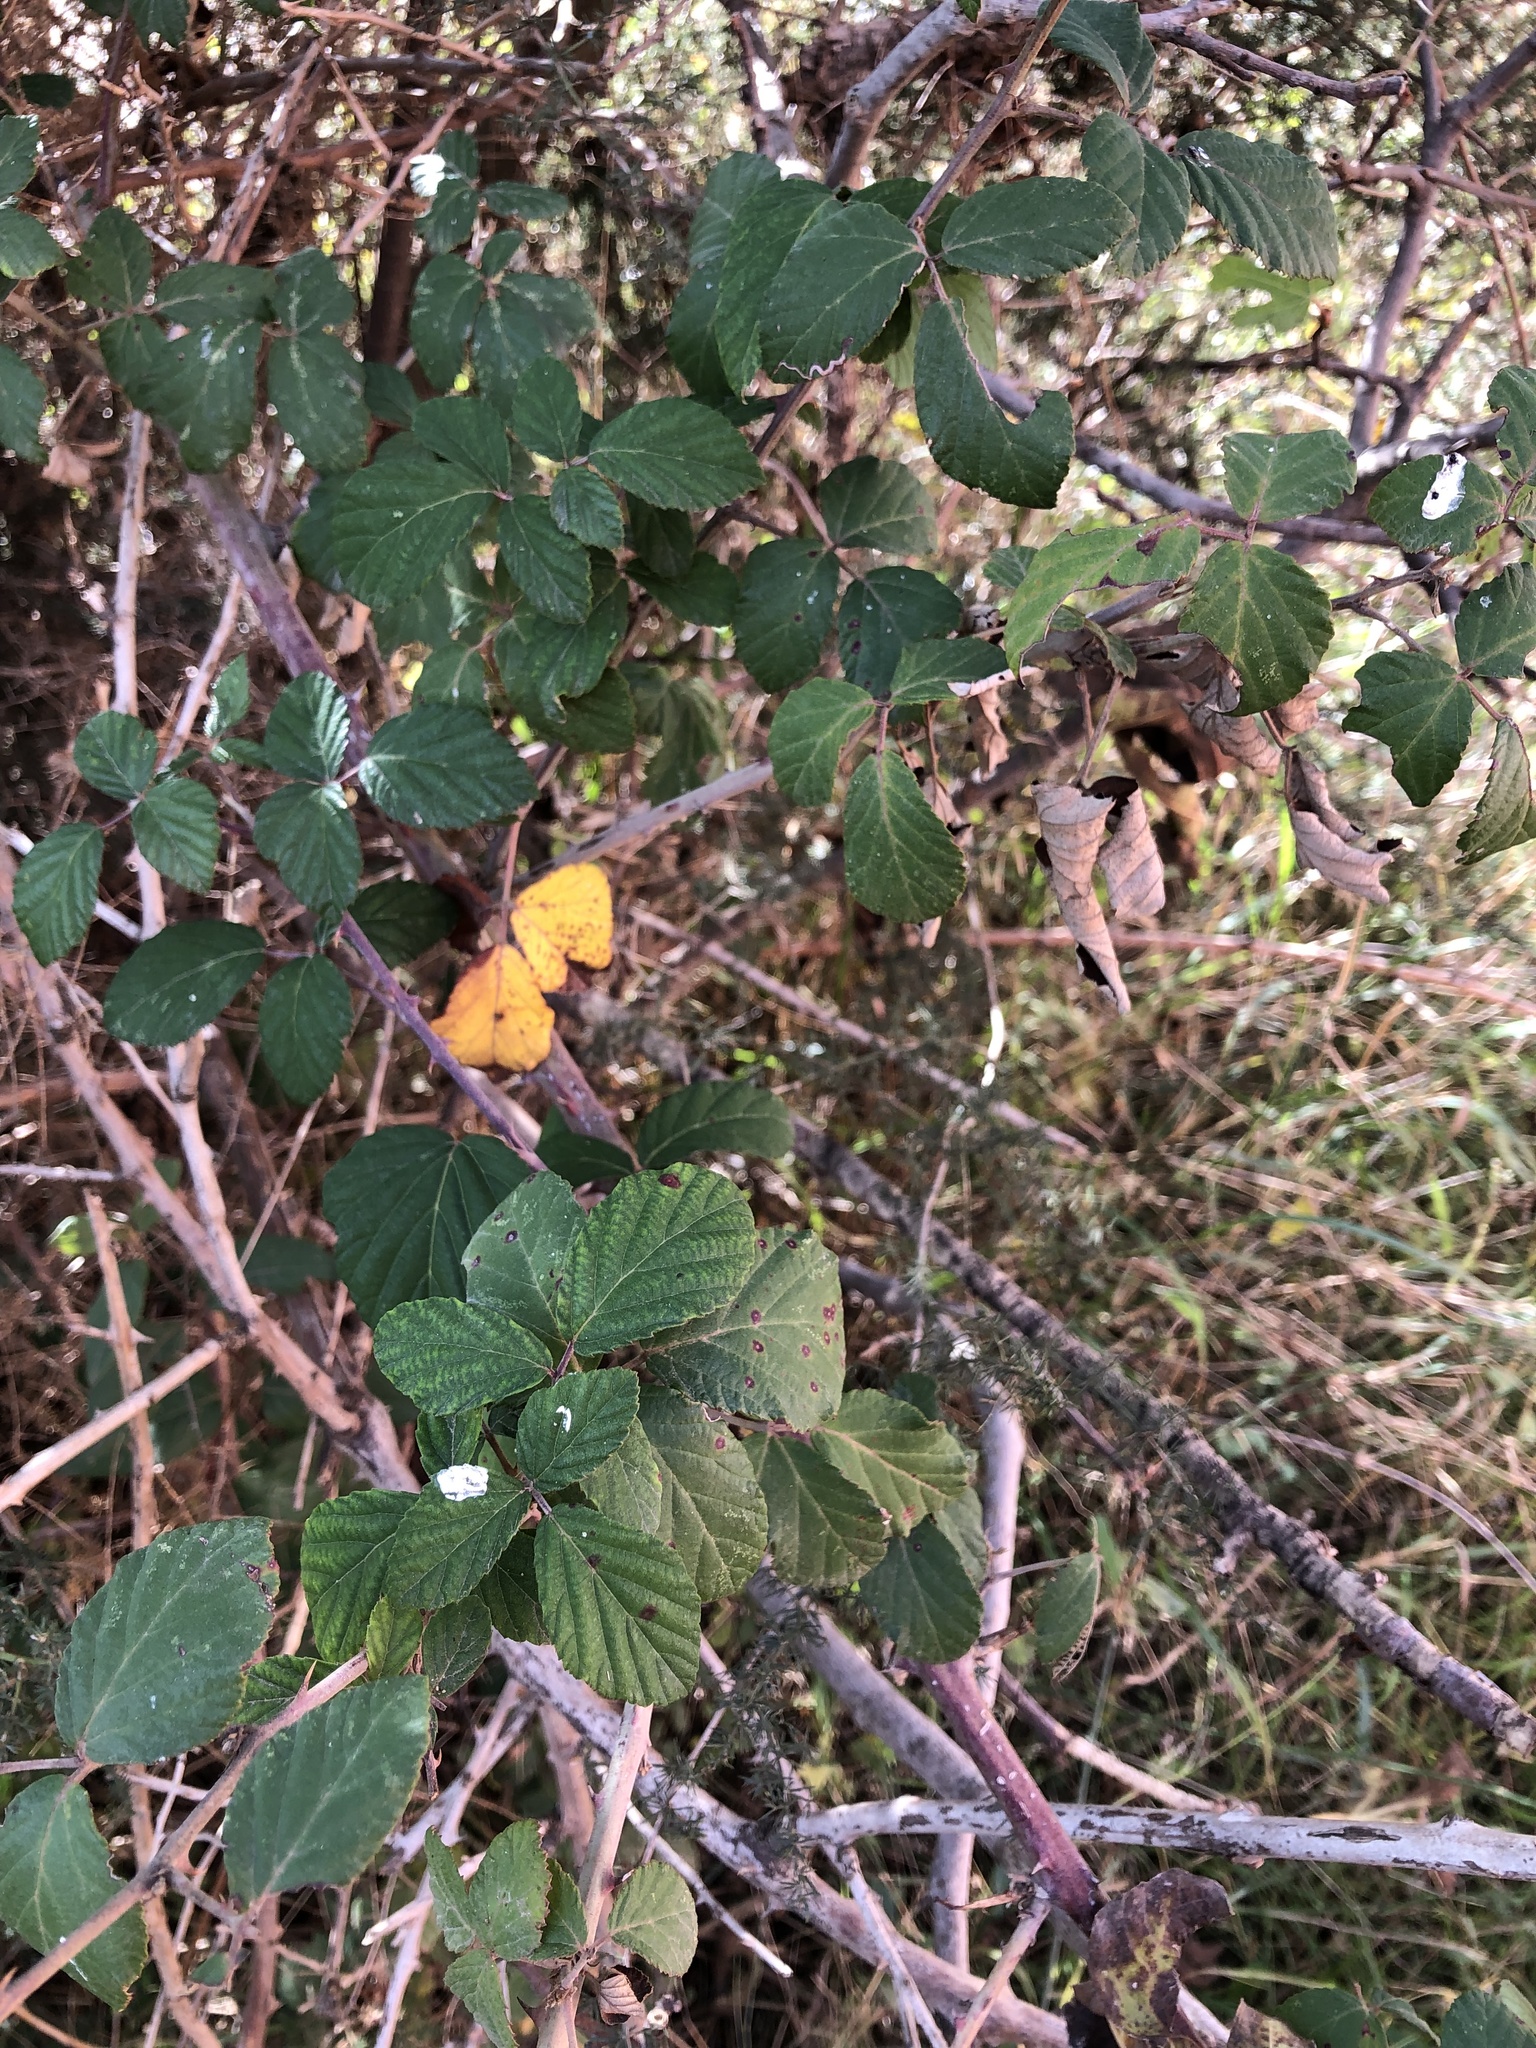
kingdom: Plantae
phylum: Tracheophyta
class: Magnoliopsida
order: Rosales
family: Rosaceae
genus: Rubus
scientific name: Rubus ulmifolius
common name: Elmleaf blackberry
